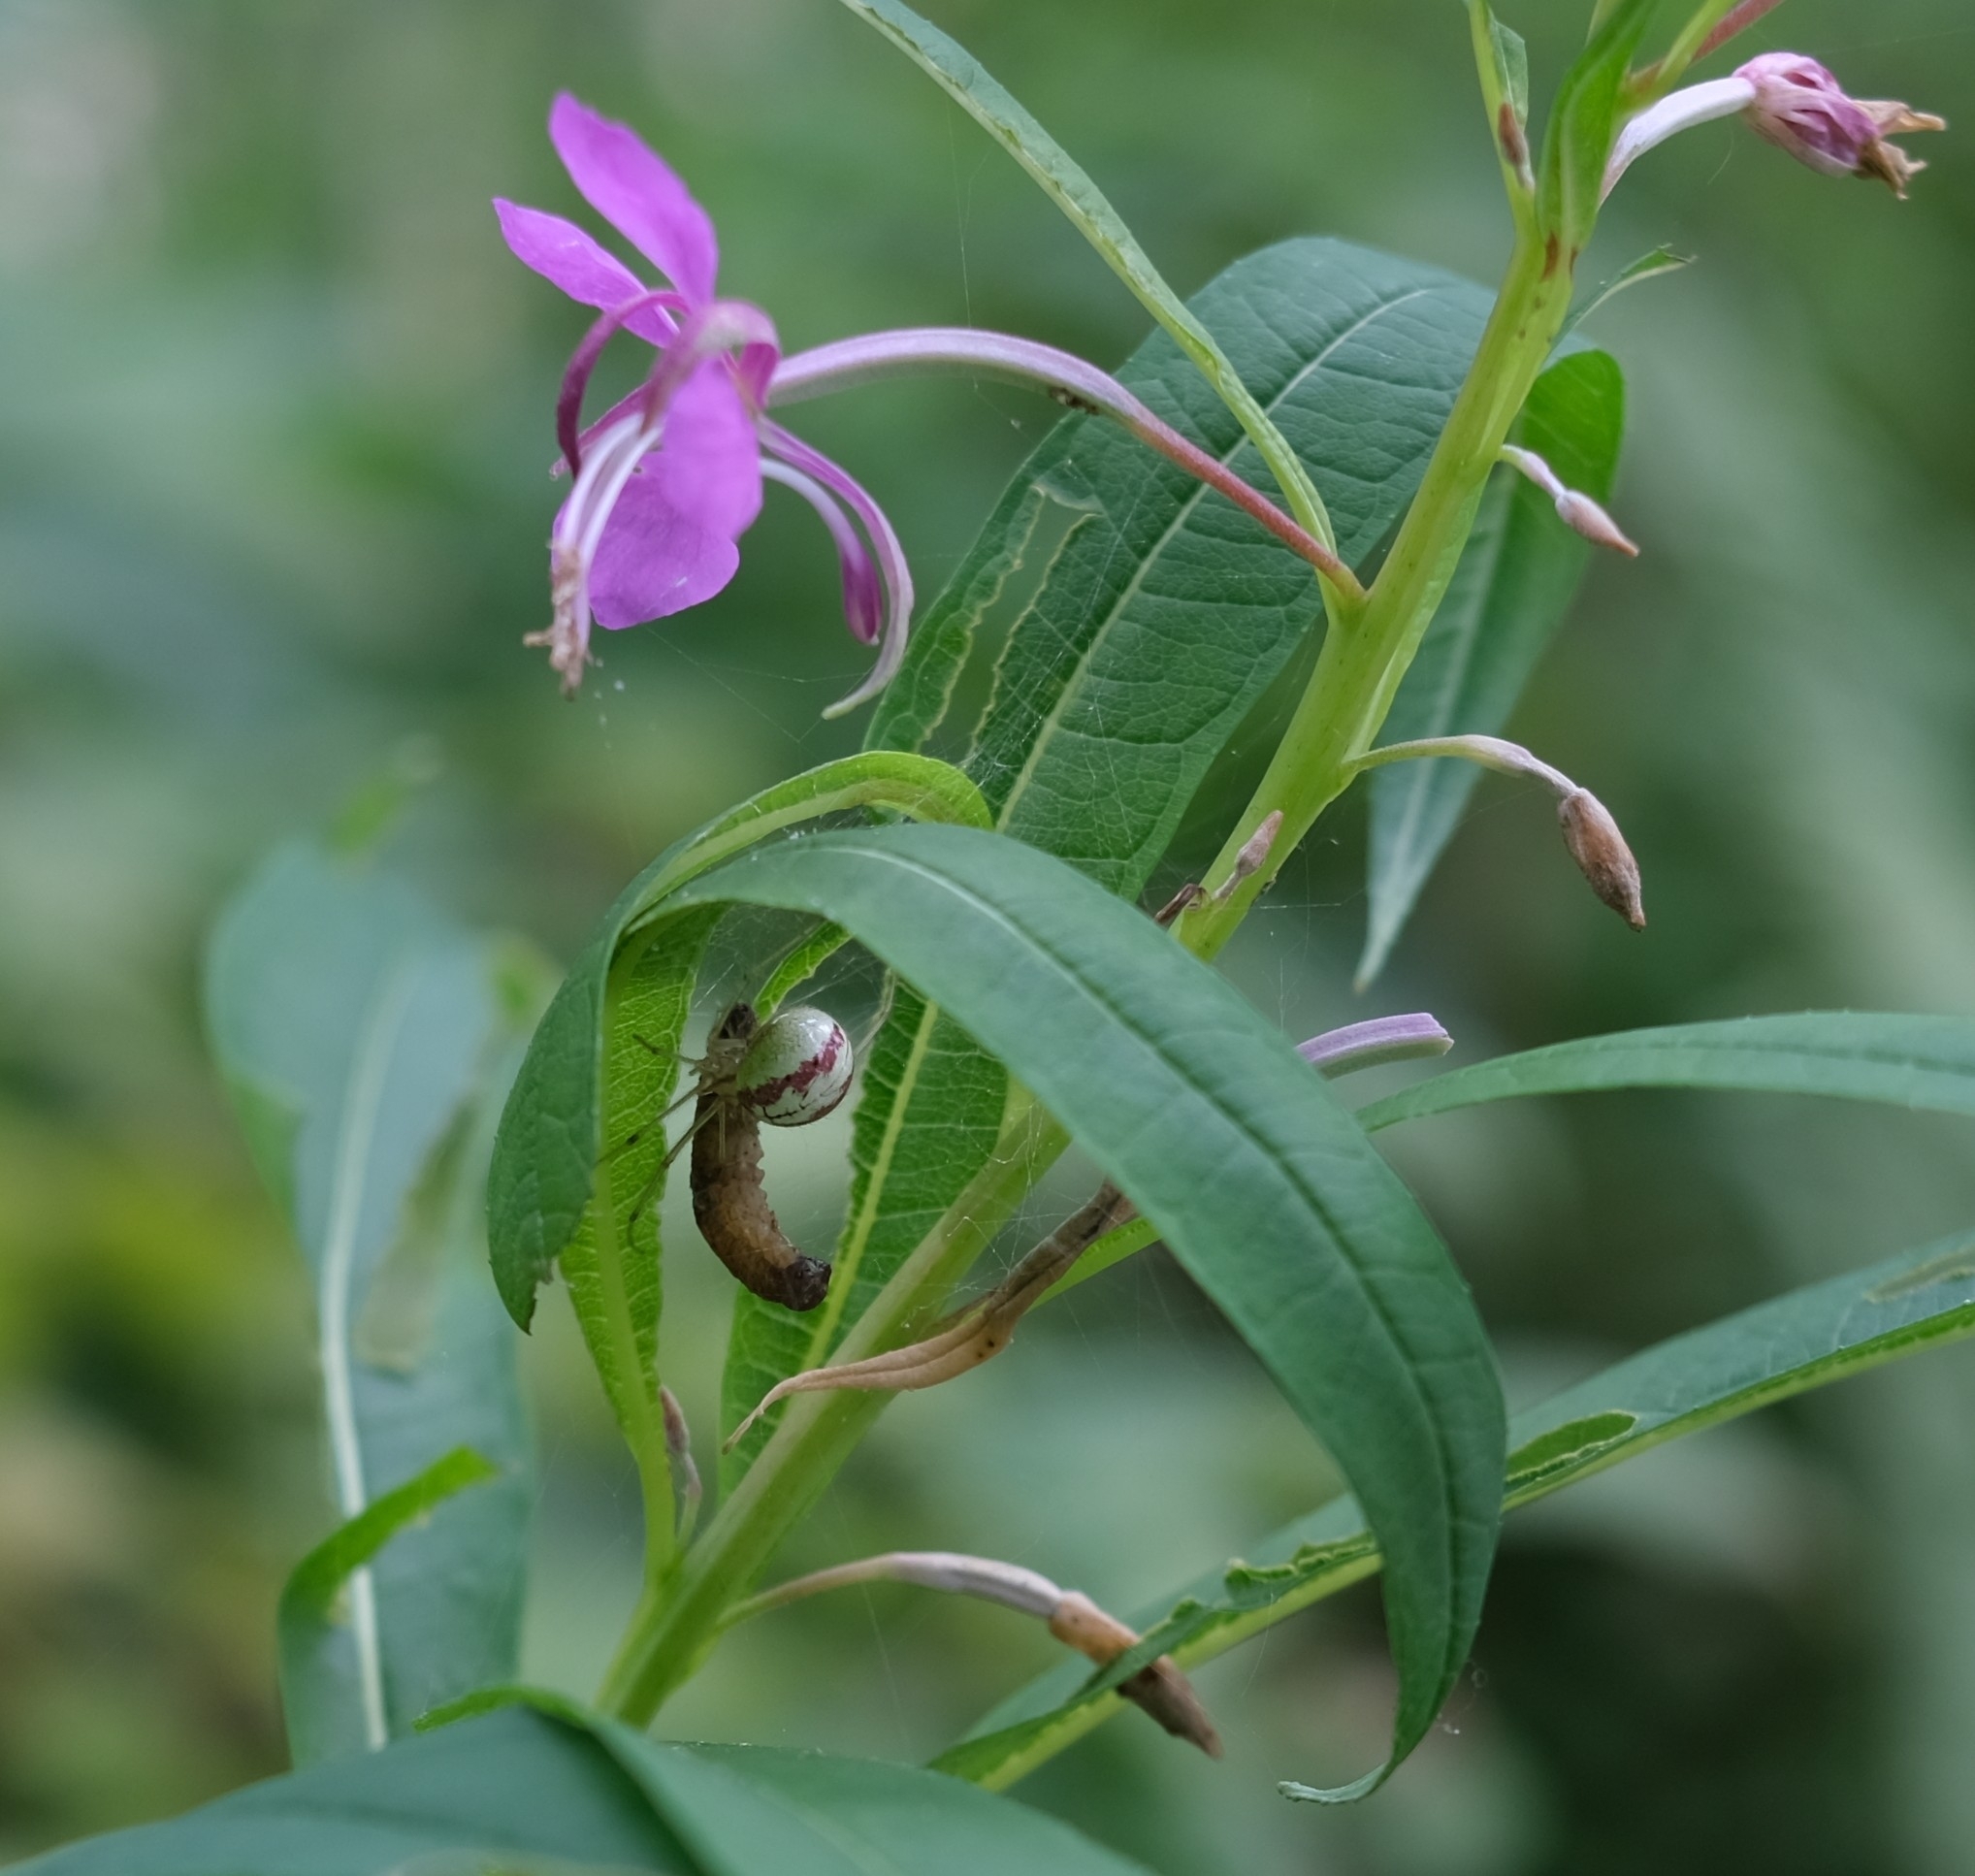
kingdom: Animalia
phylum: Arthropoda
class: Arachnida
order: Araneae
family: Theridiidae
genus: Enoplognatha
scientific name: Enoplognatha ovata
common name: Common candy-striped spider
